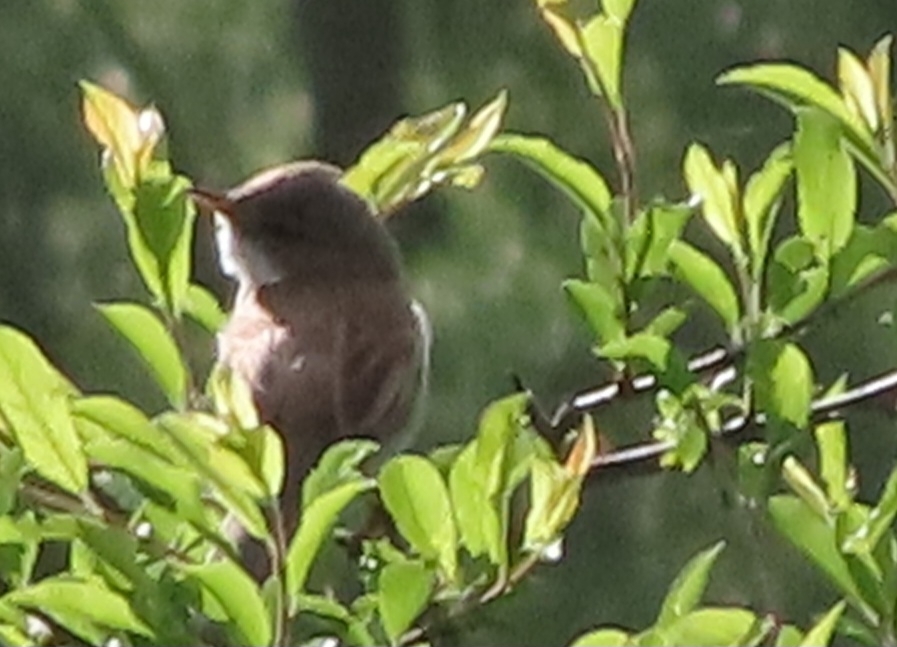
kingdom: Animalia
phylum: Chordata
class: Aves
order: Passeriformes
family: Sylviidae
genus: Sylvia
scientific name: Sylvia communis
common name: Common whitethroat
